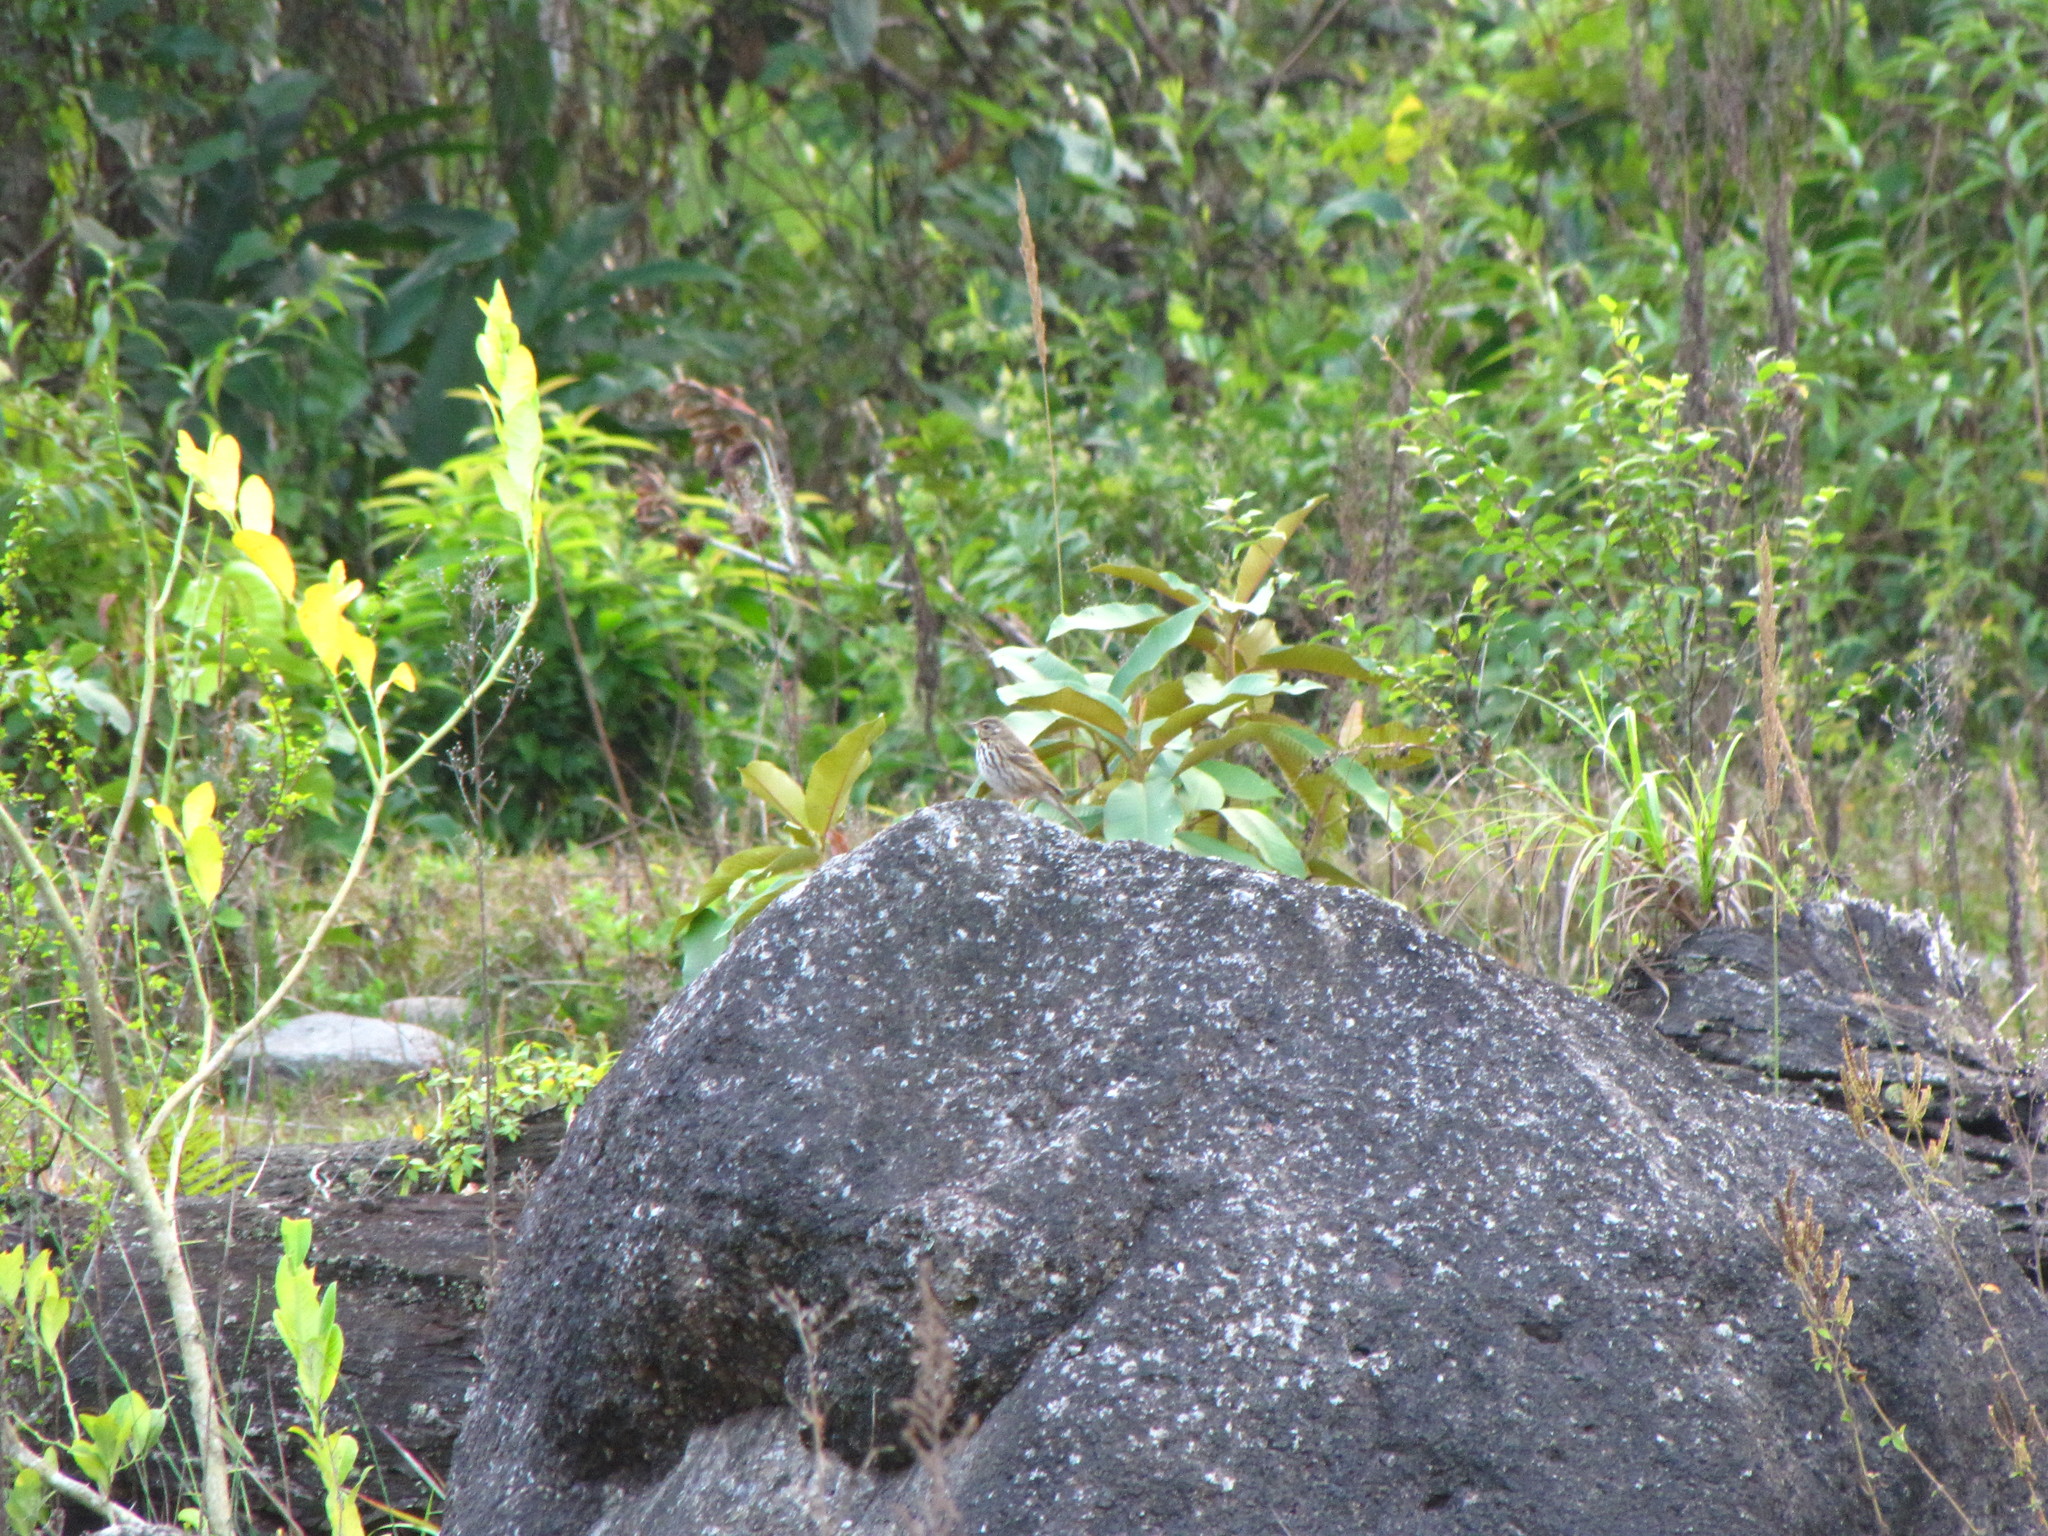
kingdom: Animalia
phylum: Chordata
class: Aves
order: Passeriformes
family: Motacillidae
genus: Anthus
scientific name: Anthus hodgsoni
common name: Olive-backed pipit
